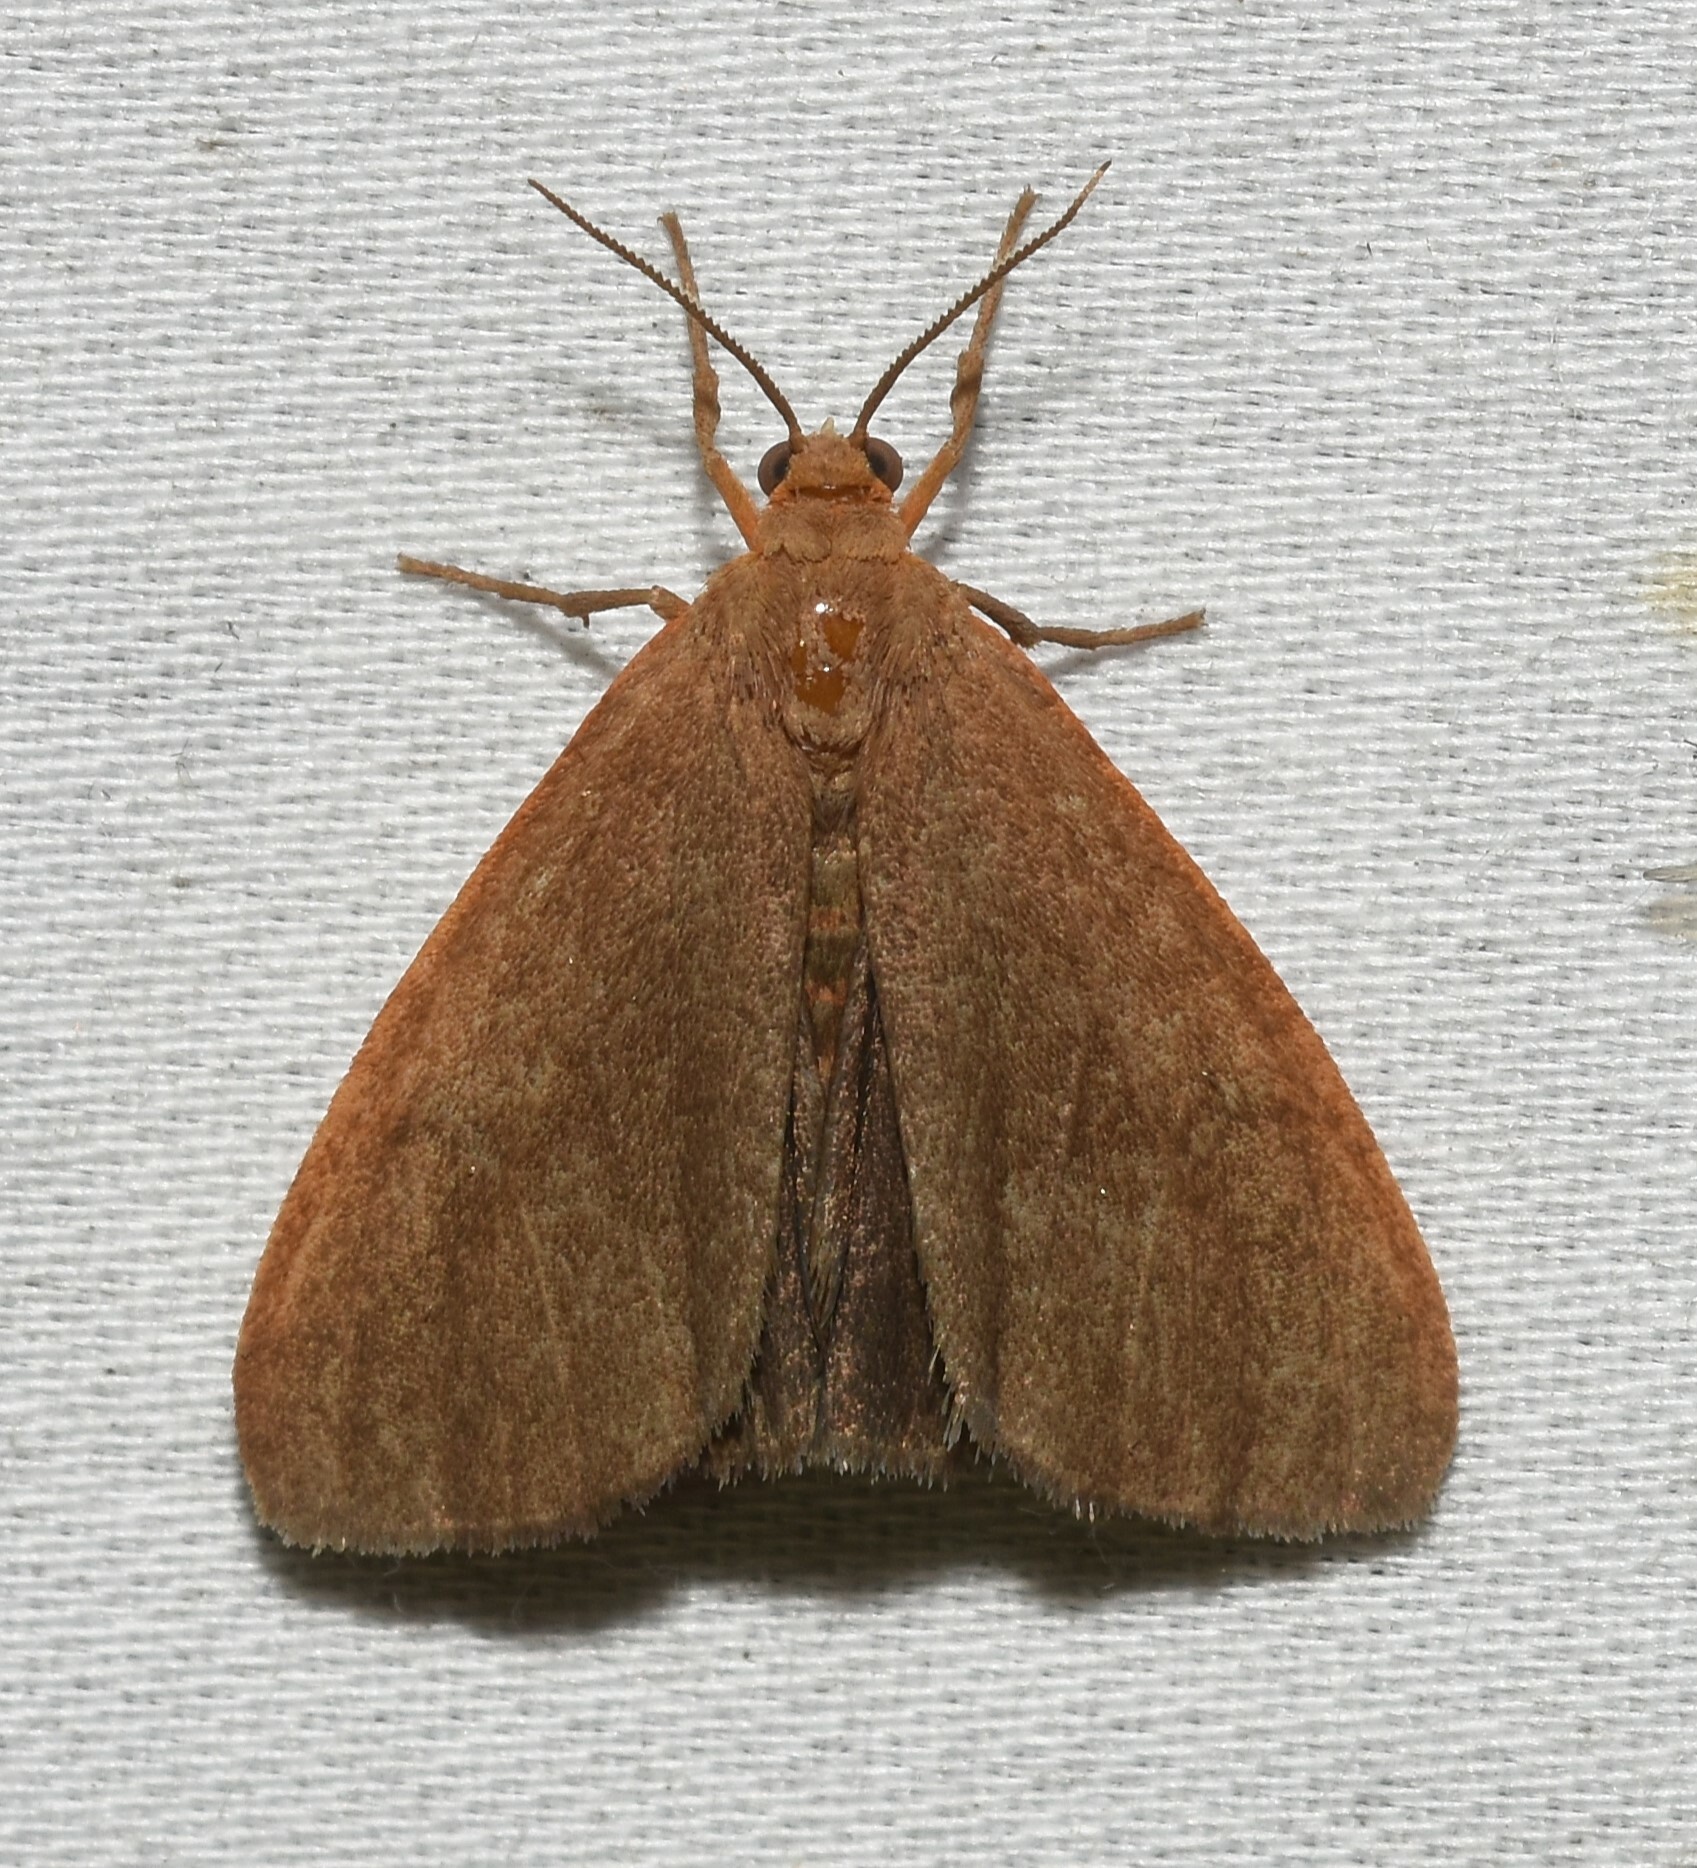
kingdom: Animalia
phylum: Arthropoda
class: Insecta
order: Lepidoptera
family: Erebidae
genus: Virbia
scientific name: Virbia opella
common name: Tawny virbia moth
